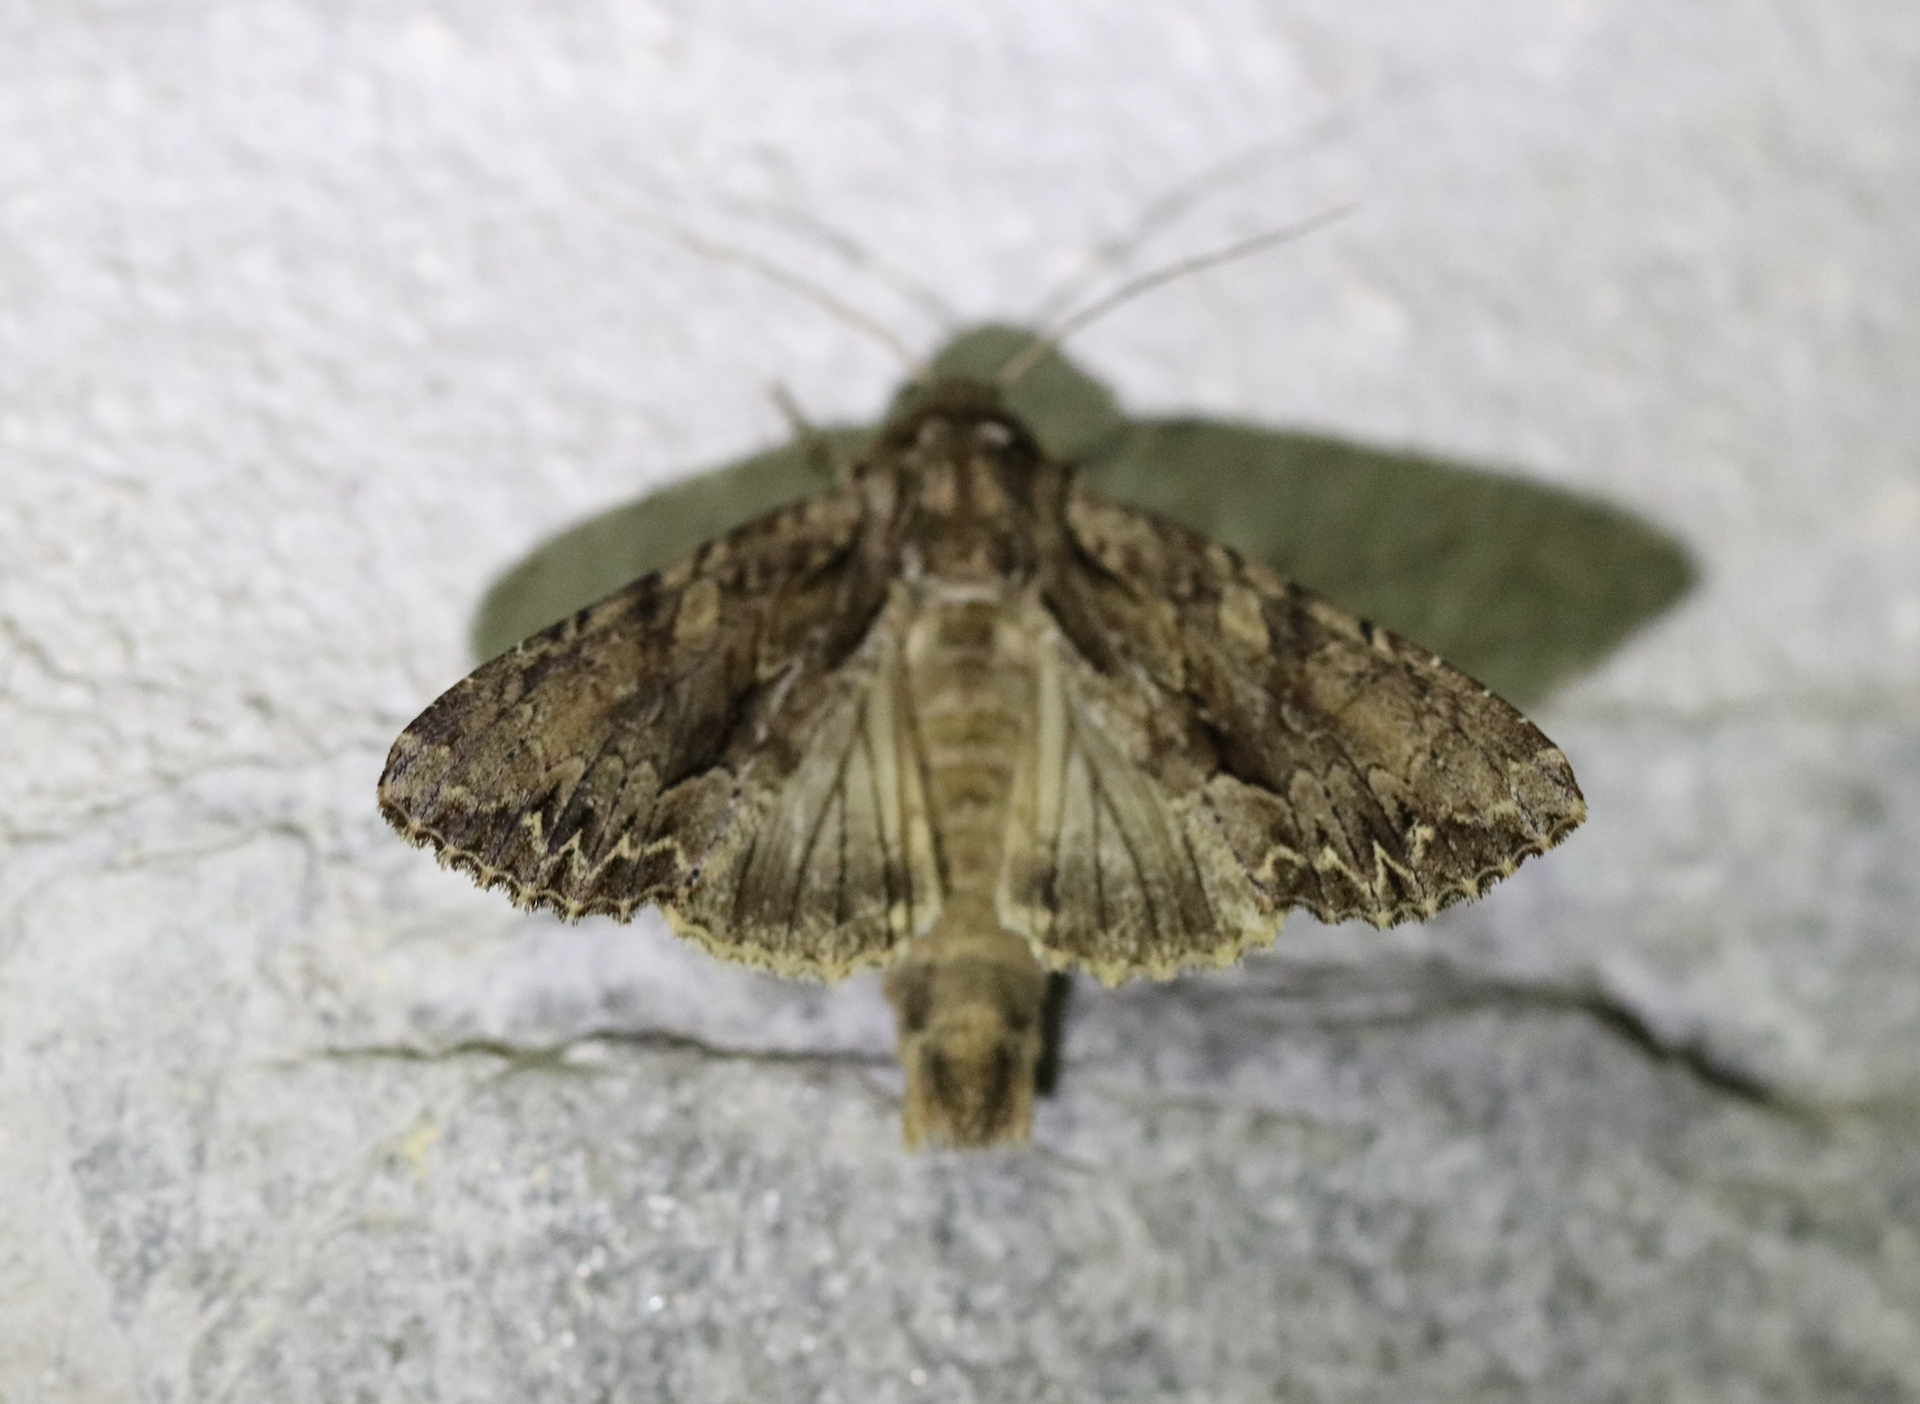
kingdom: Animalia
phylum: Arthropoda
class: Insecta
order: Lepidoptera
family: Noctuidae
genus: Apamea
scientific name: Apamea monoglypha
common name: Dark arches
